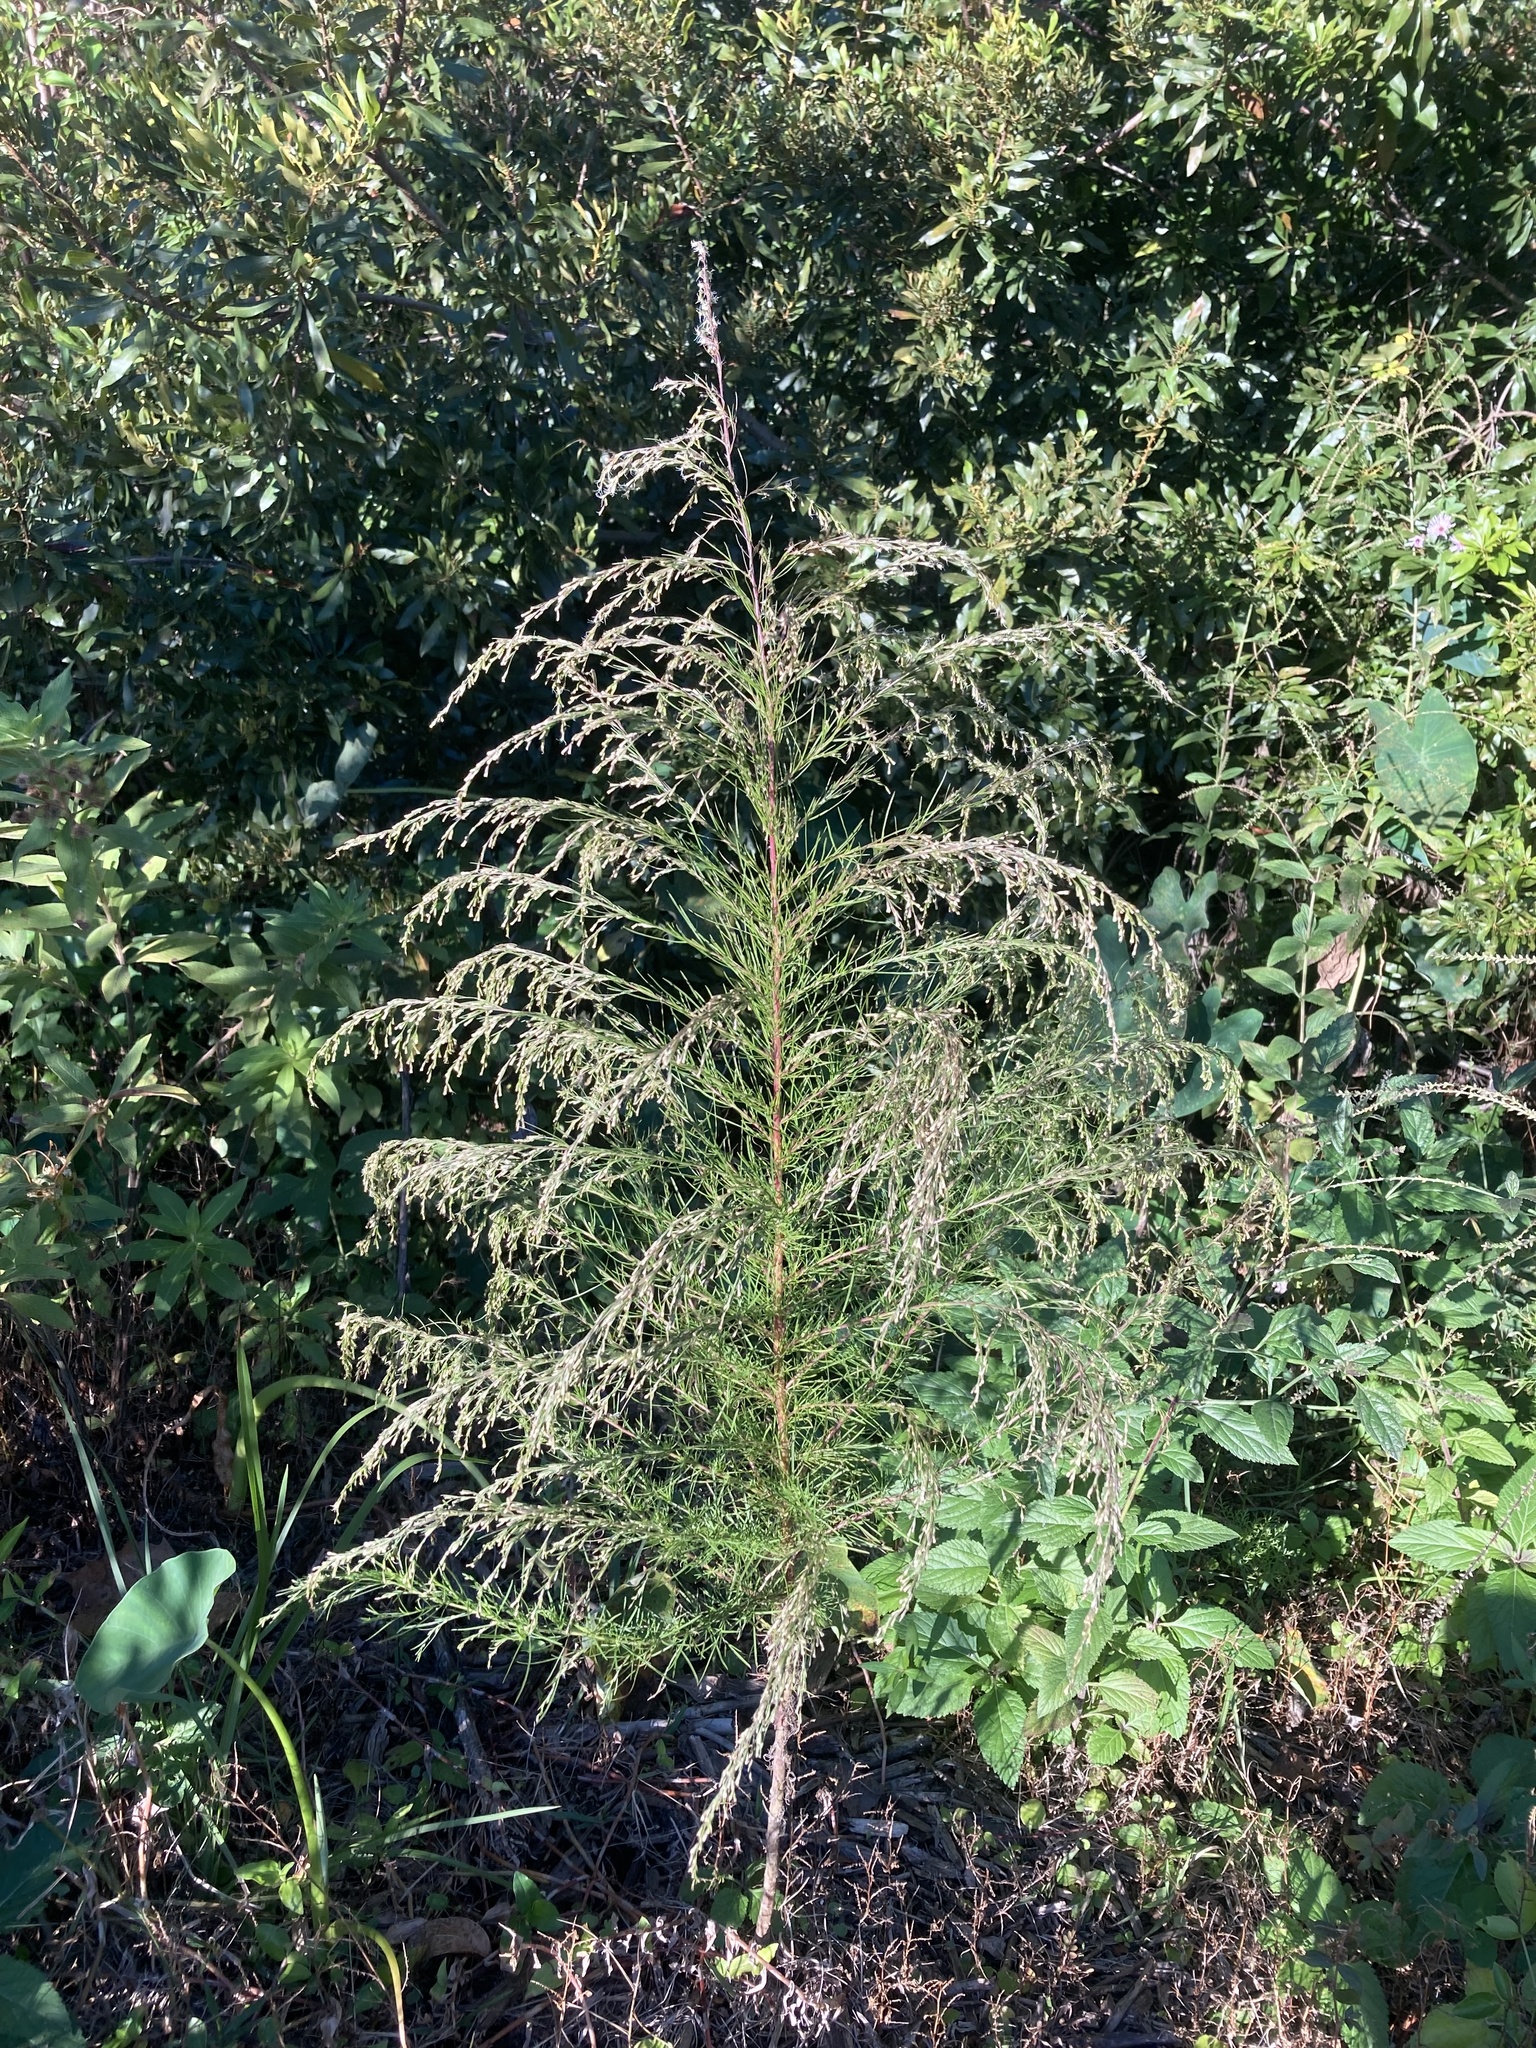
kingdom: Plantae
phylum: Tracheophyta
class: Magnoliopsida
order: Asterales
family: Asteraceae
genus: Eupatorium
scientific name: Eupatorium capillifolium
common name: Dog-fennel
